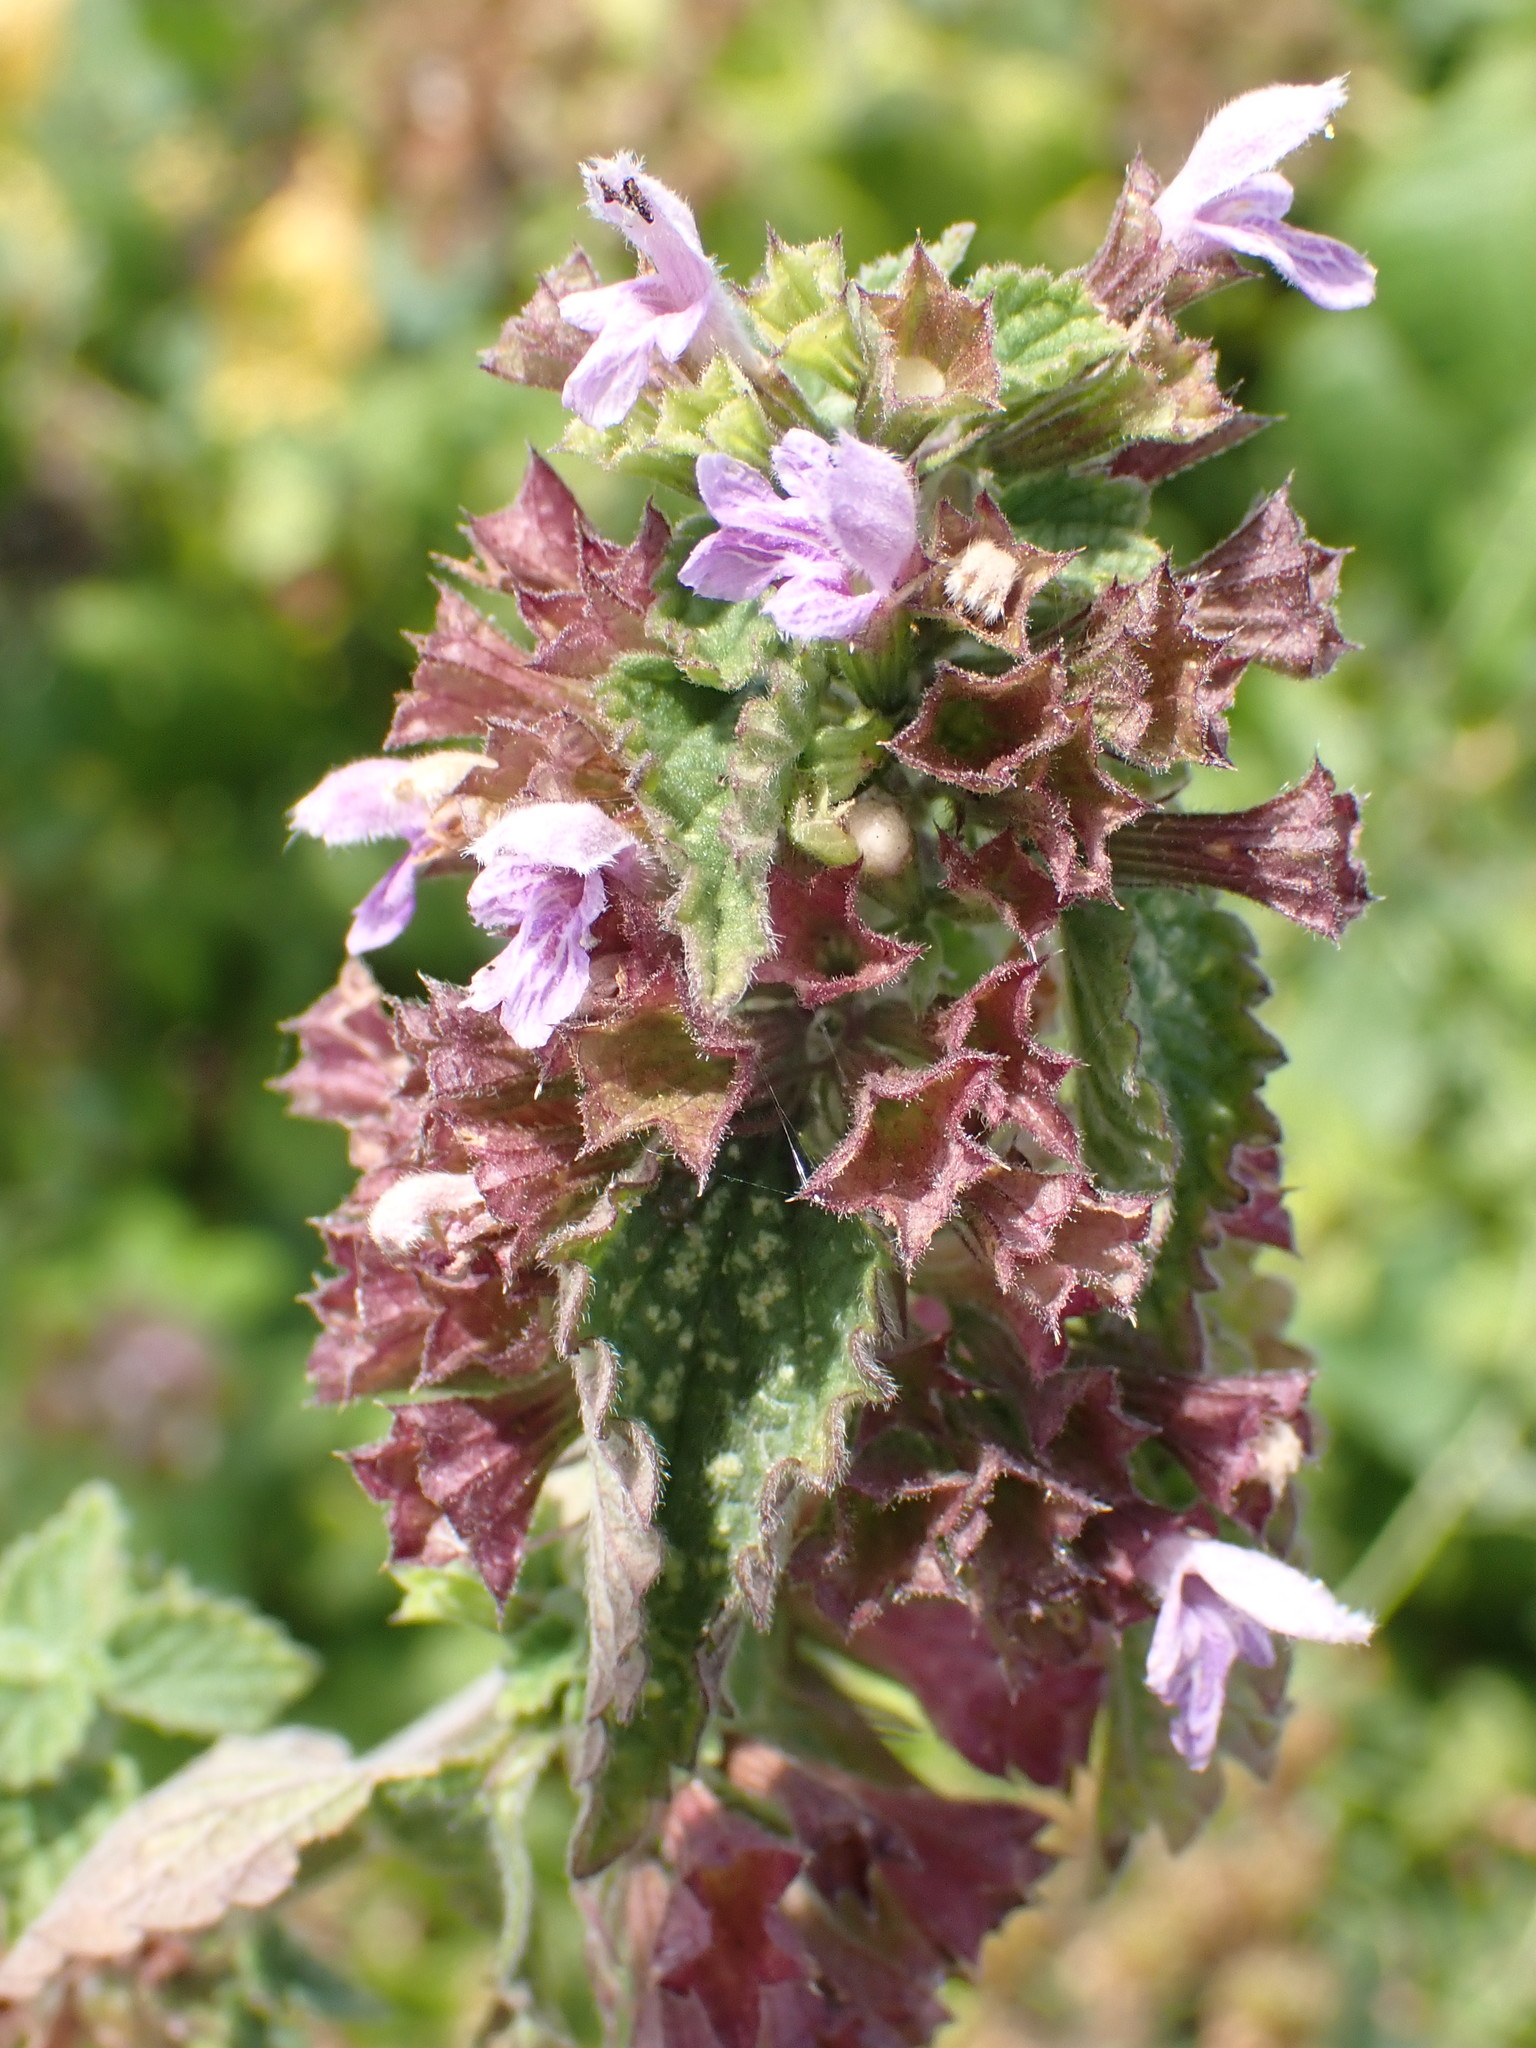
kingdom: Plantae
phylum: Tracheophyta
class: Magnoliopsida
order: Lamiales
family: Lamiaceae
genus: Ballota
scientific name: Ballota nigra
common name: Black horehound
